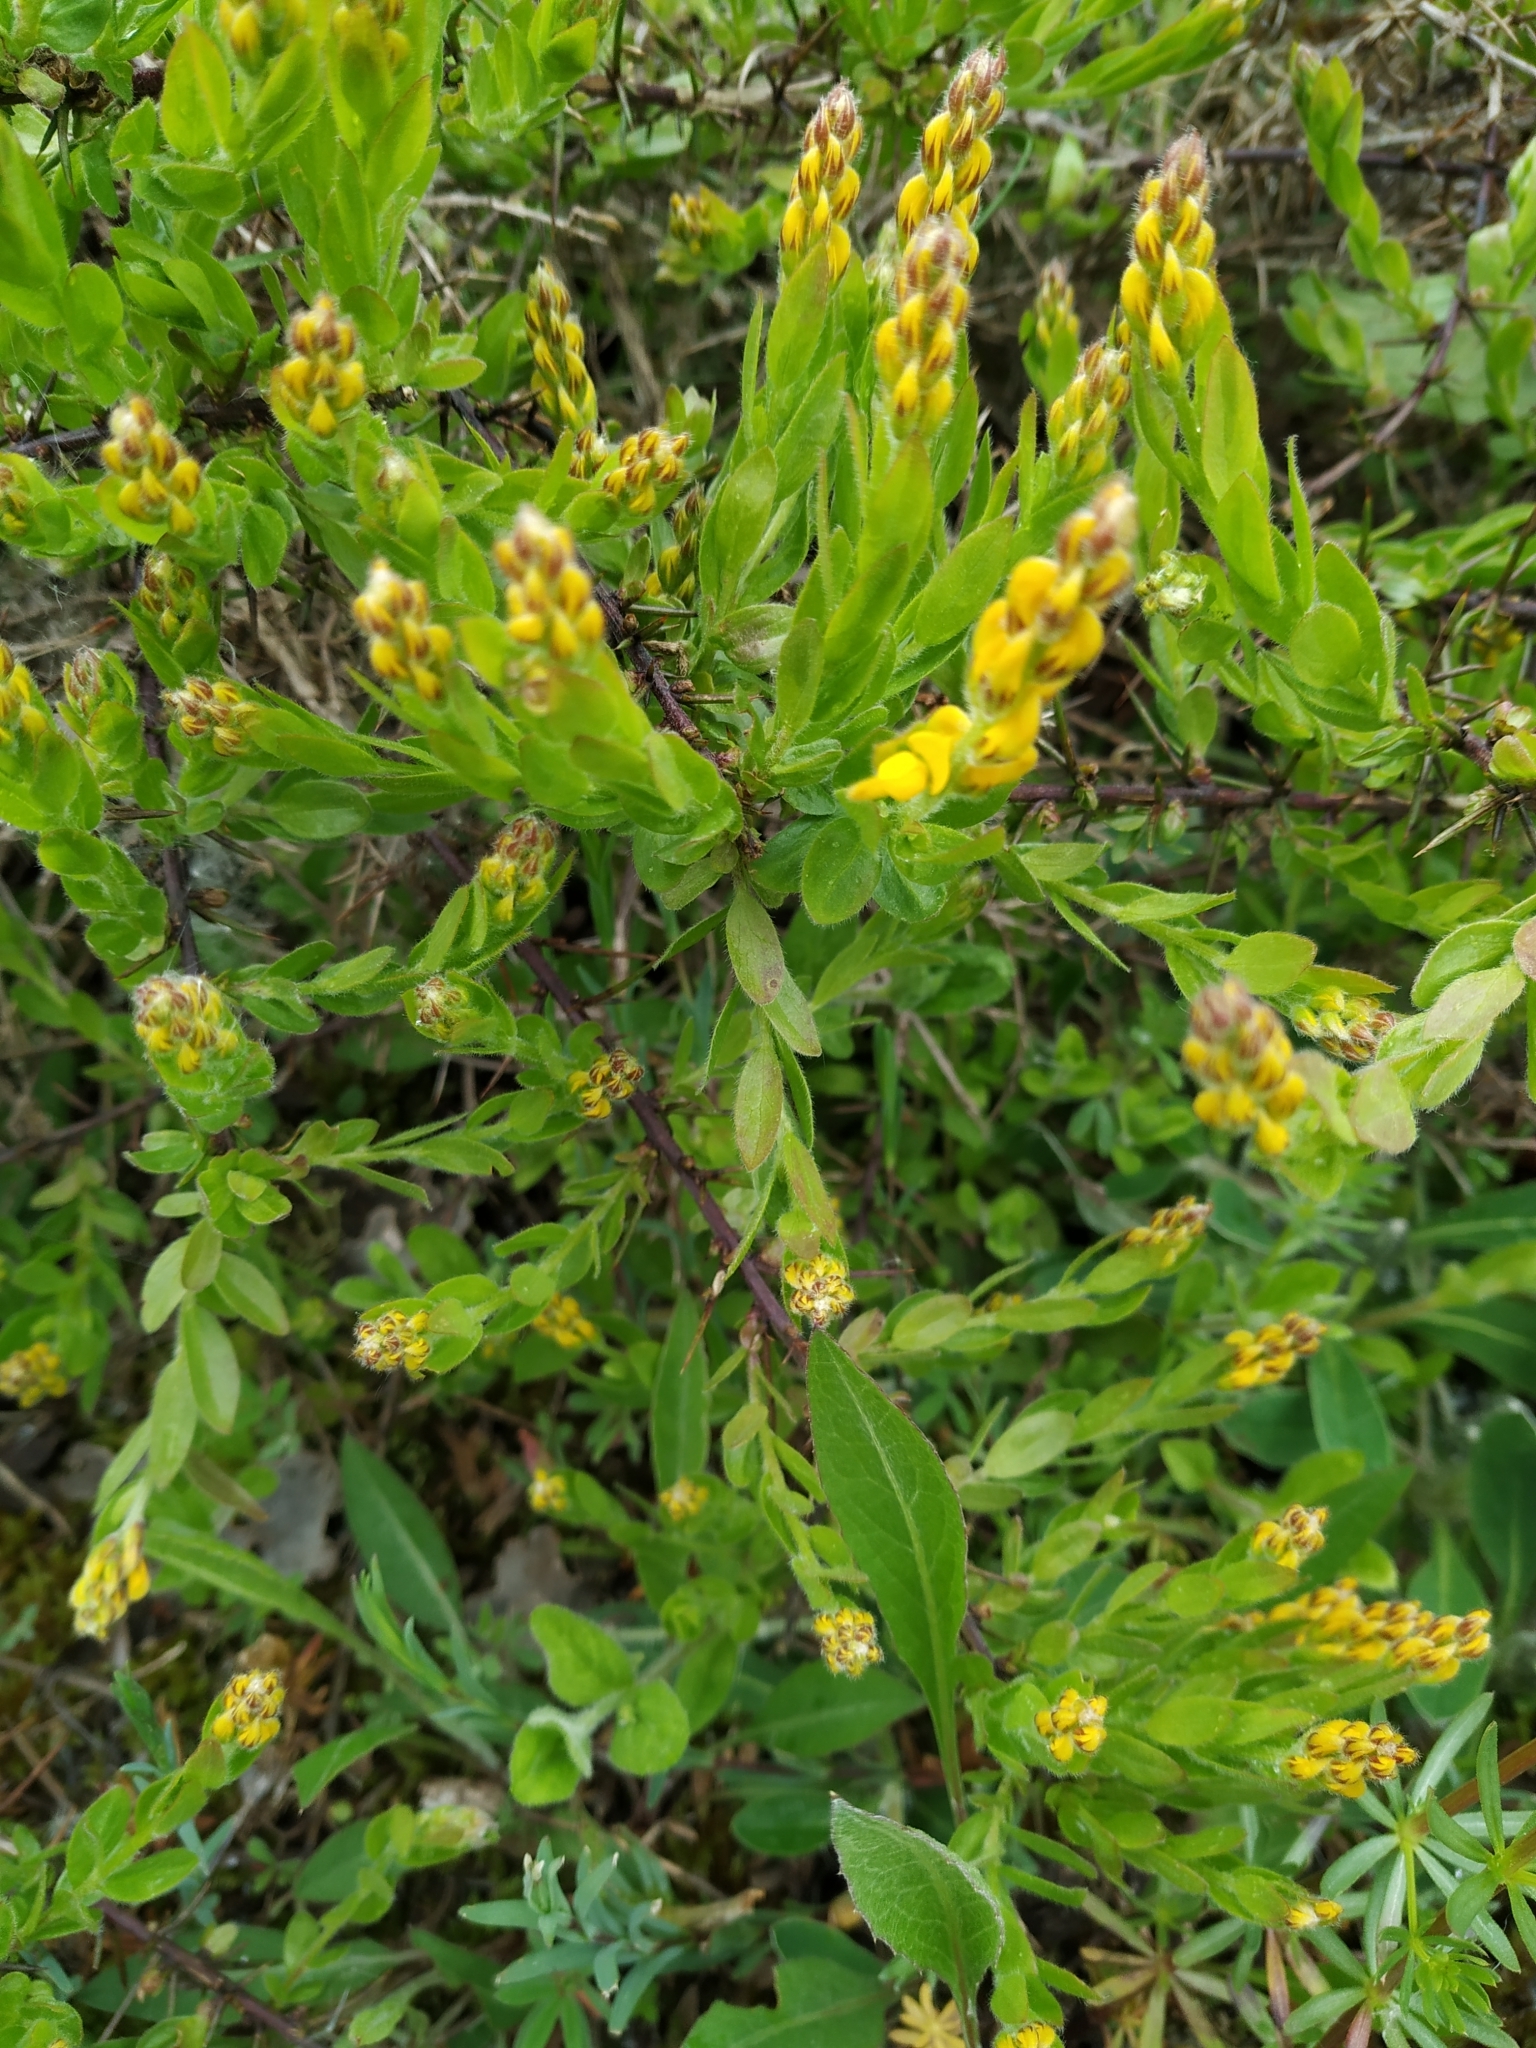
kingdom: Plantae
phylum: Tracheophyta
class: Magnoliopsida
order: Fabales
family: Fabaceae
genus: Genista
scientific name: Genista germanica
